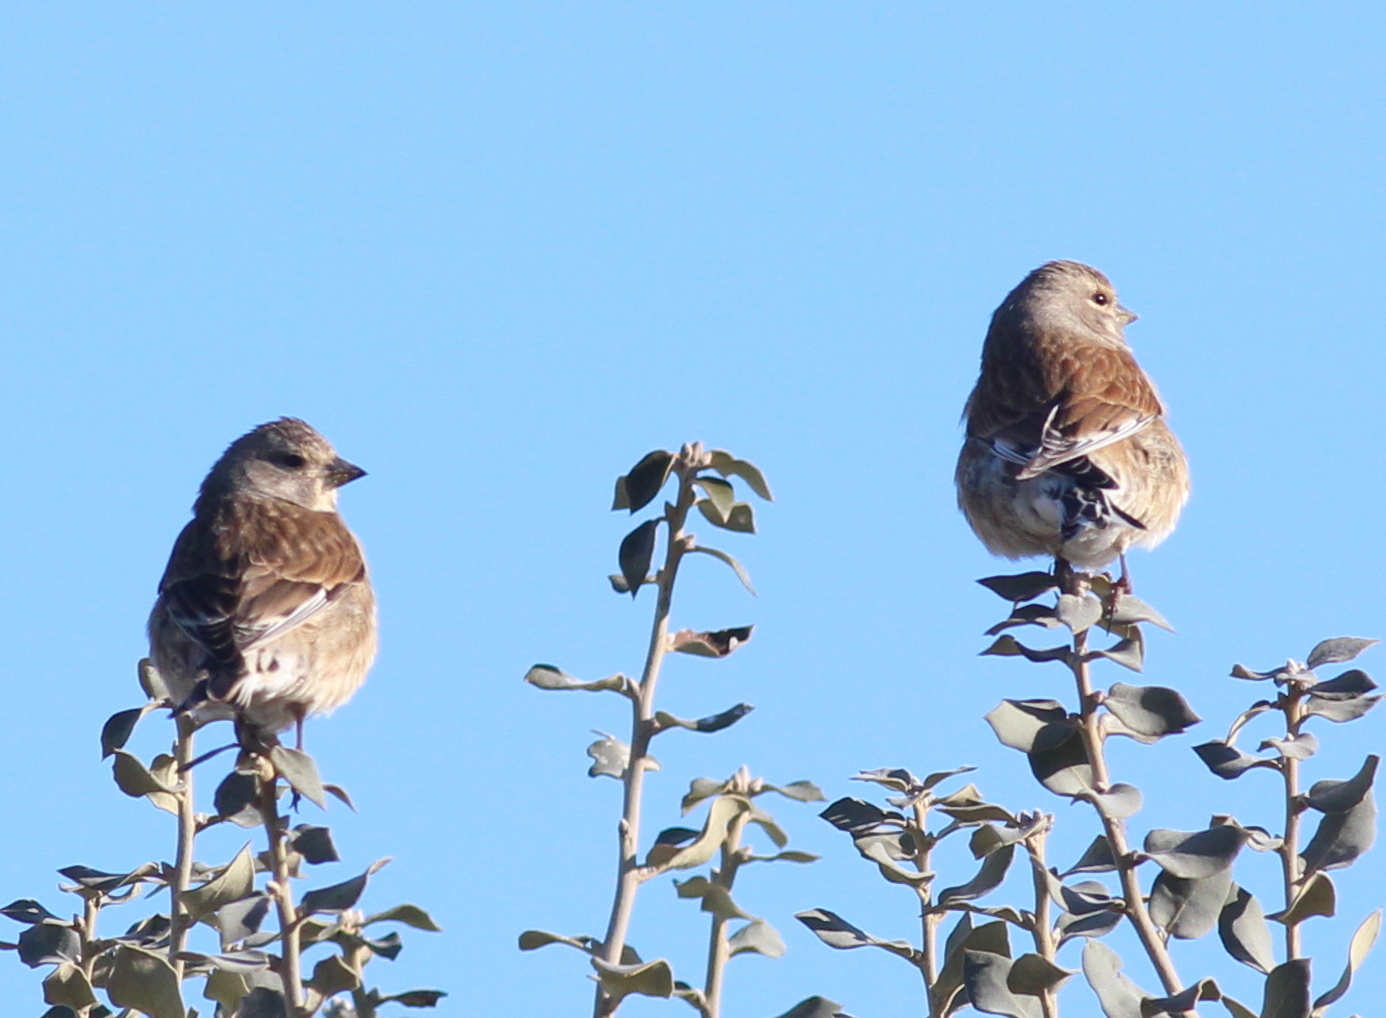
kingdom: Animalia
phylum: Chordata
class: Aves
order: Passeriformes
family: Fringillidae
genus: Linaria
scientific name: Linaria cannabina
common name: Common linnet
